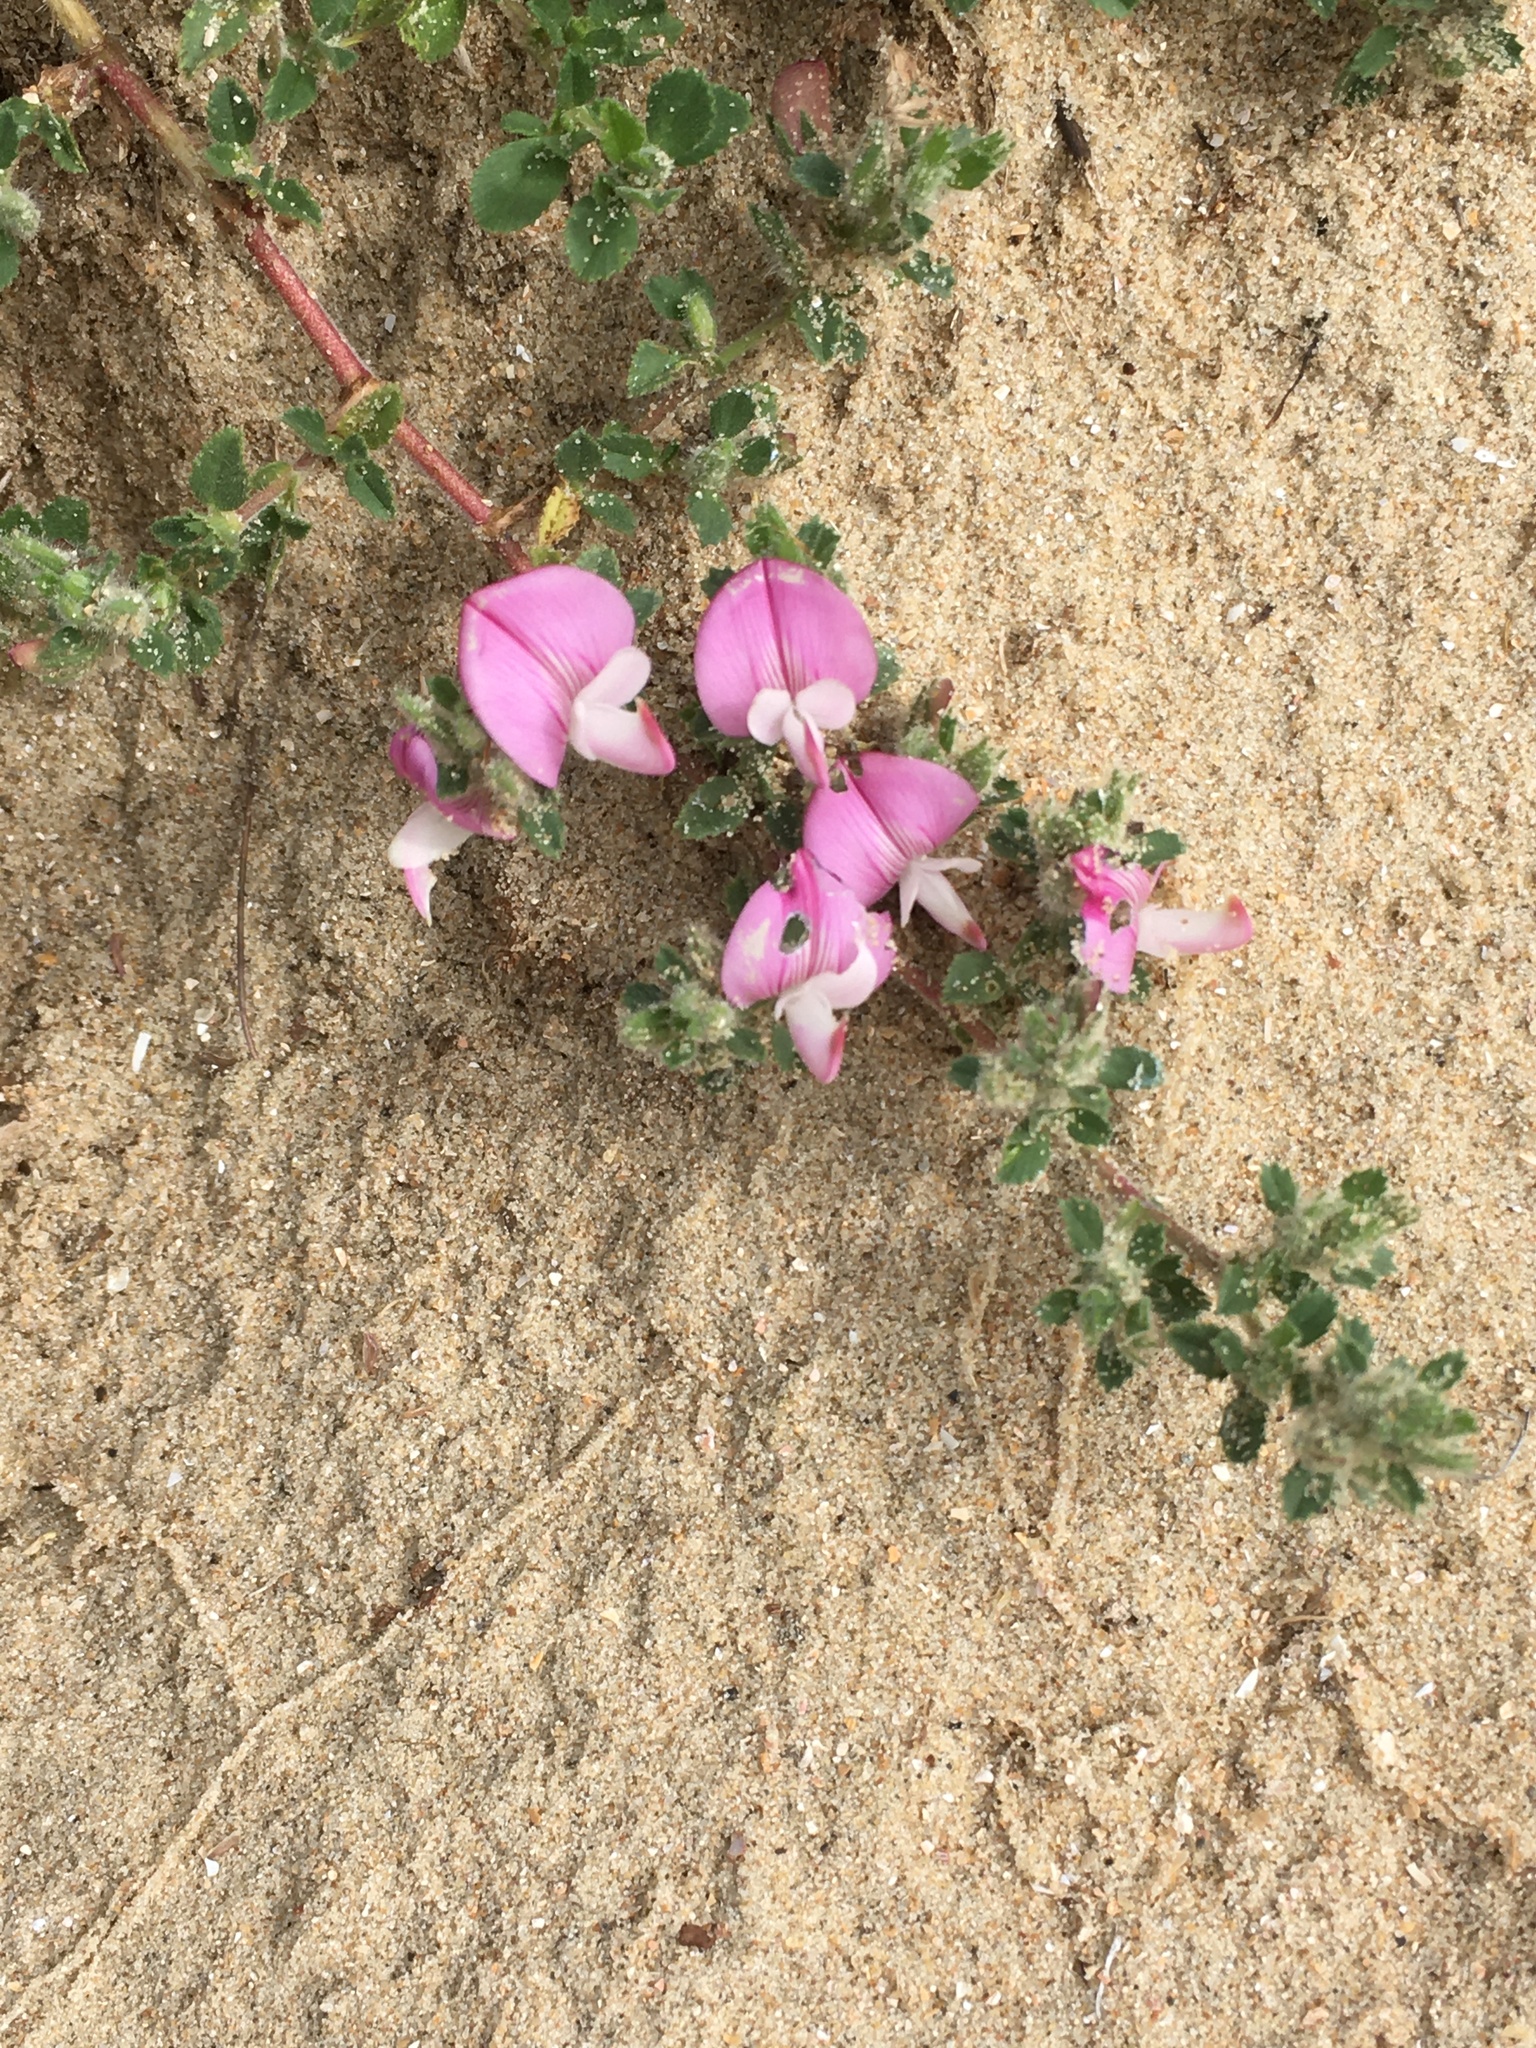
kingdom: Plantae
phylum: Tracheophyta
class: Magnoliopsida
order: Fabales
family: Fabaceae
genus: Ononis
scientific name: Ononis spinosa
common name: Spiny restharrow
